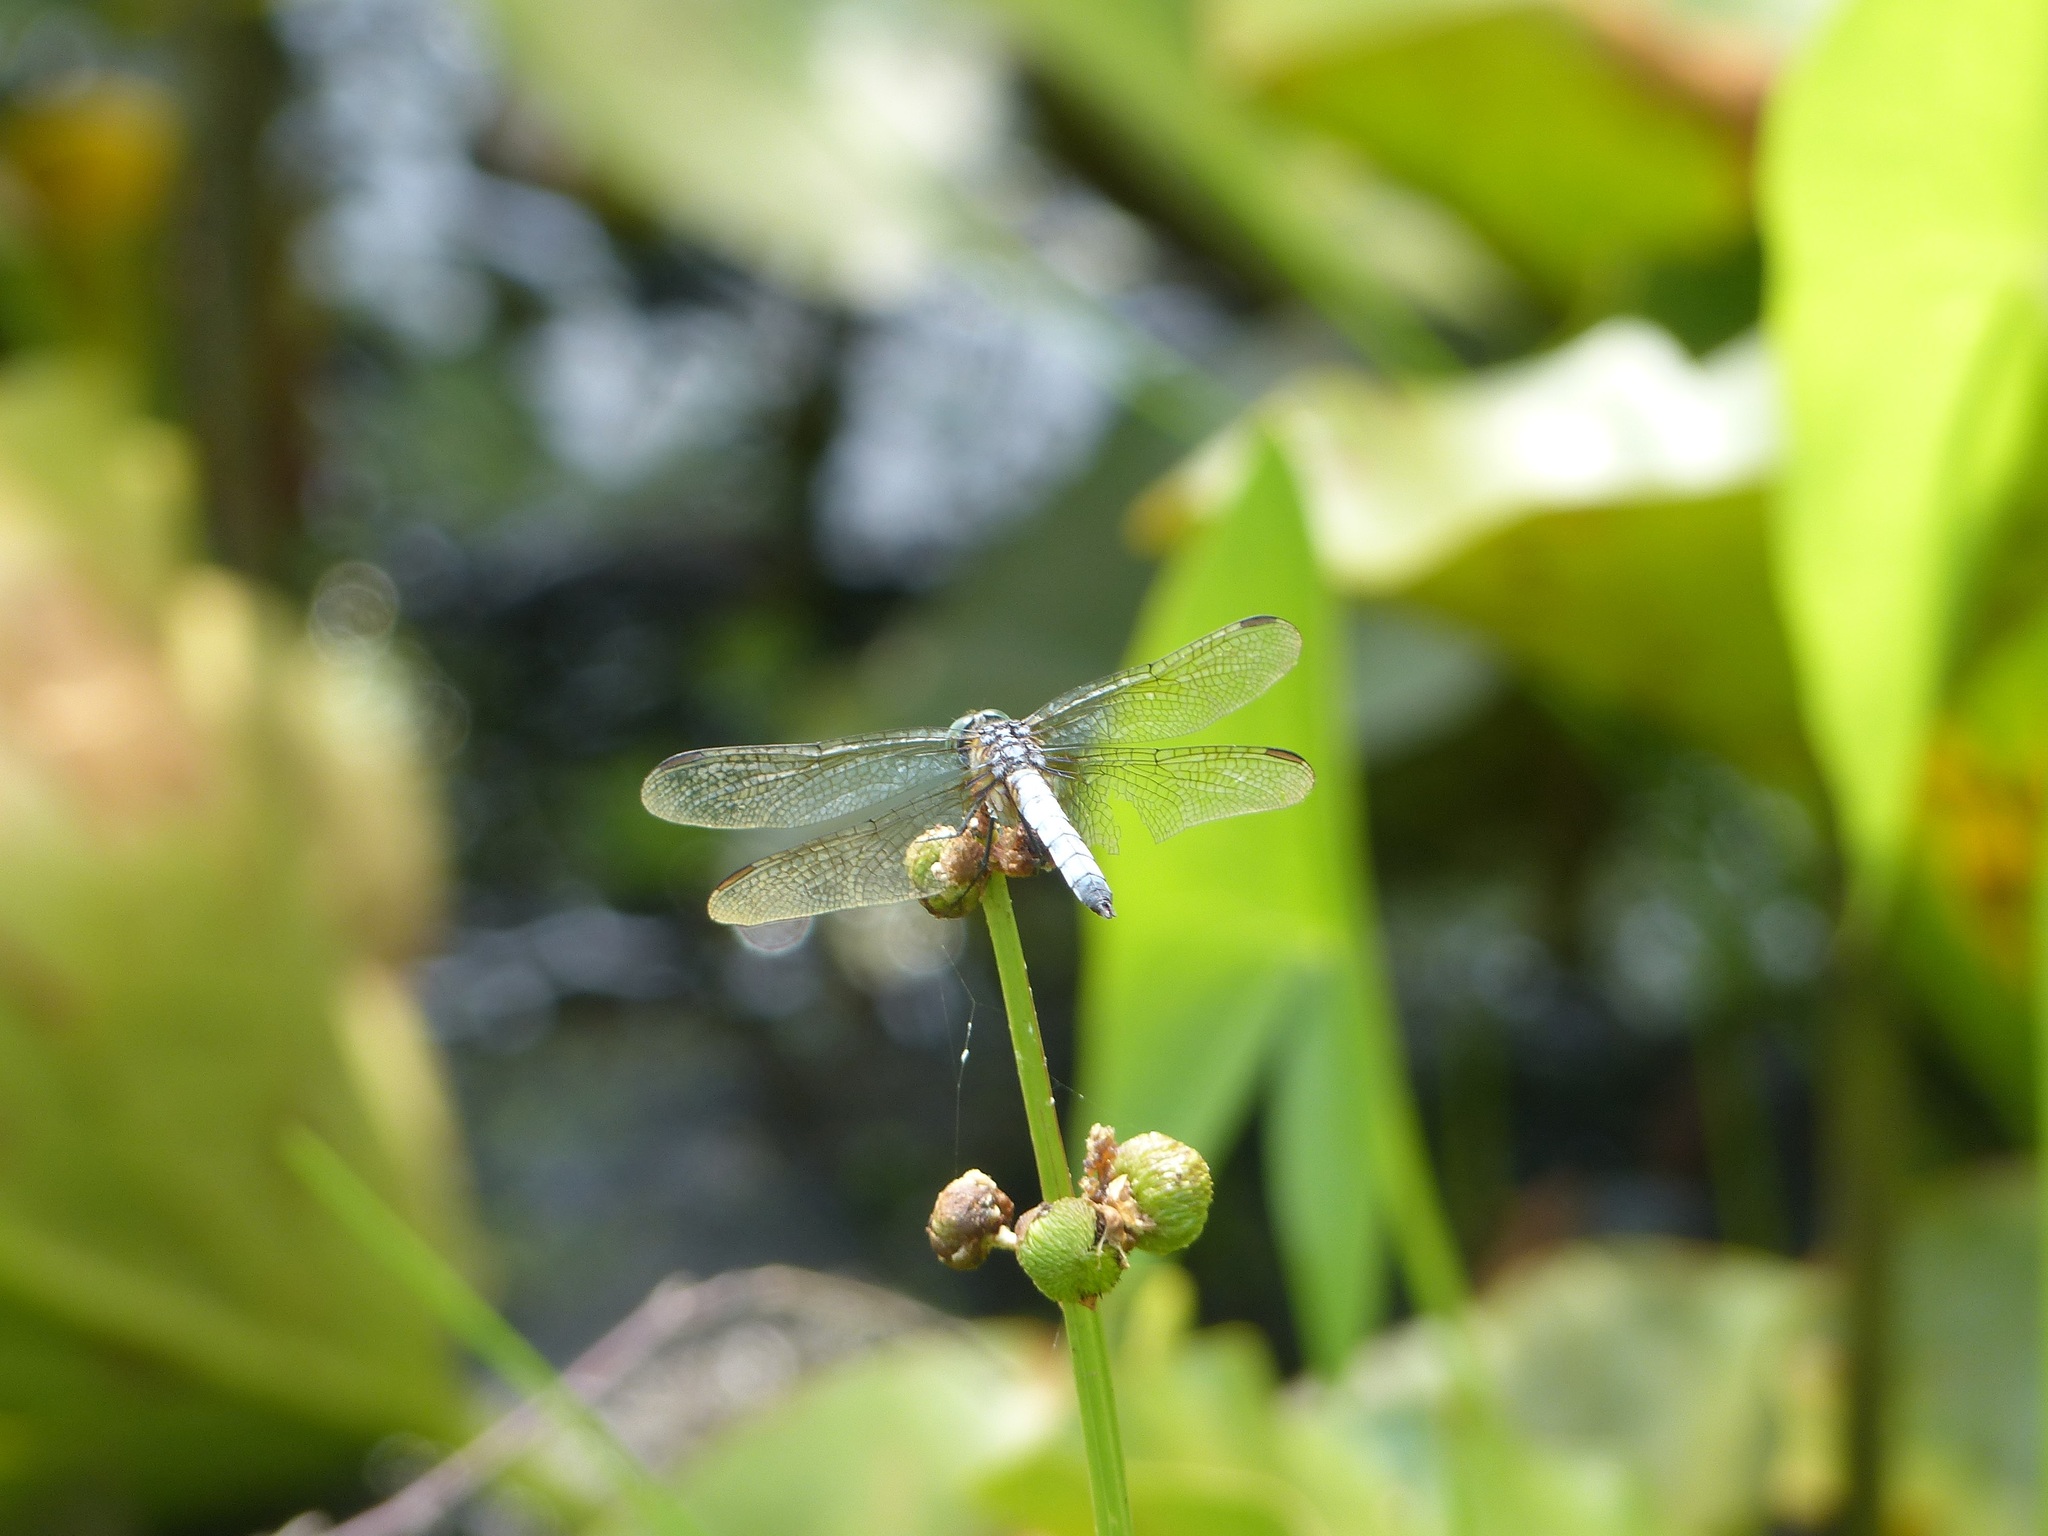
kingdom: Animalia
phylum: Arthropoda
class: Insecta
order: Odonata
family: Libellulidae
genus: Pachydiplax
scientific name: Pachydiplax longipennis
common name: Blue dasher
